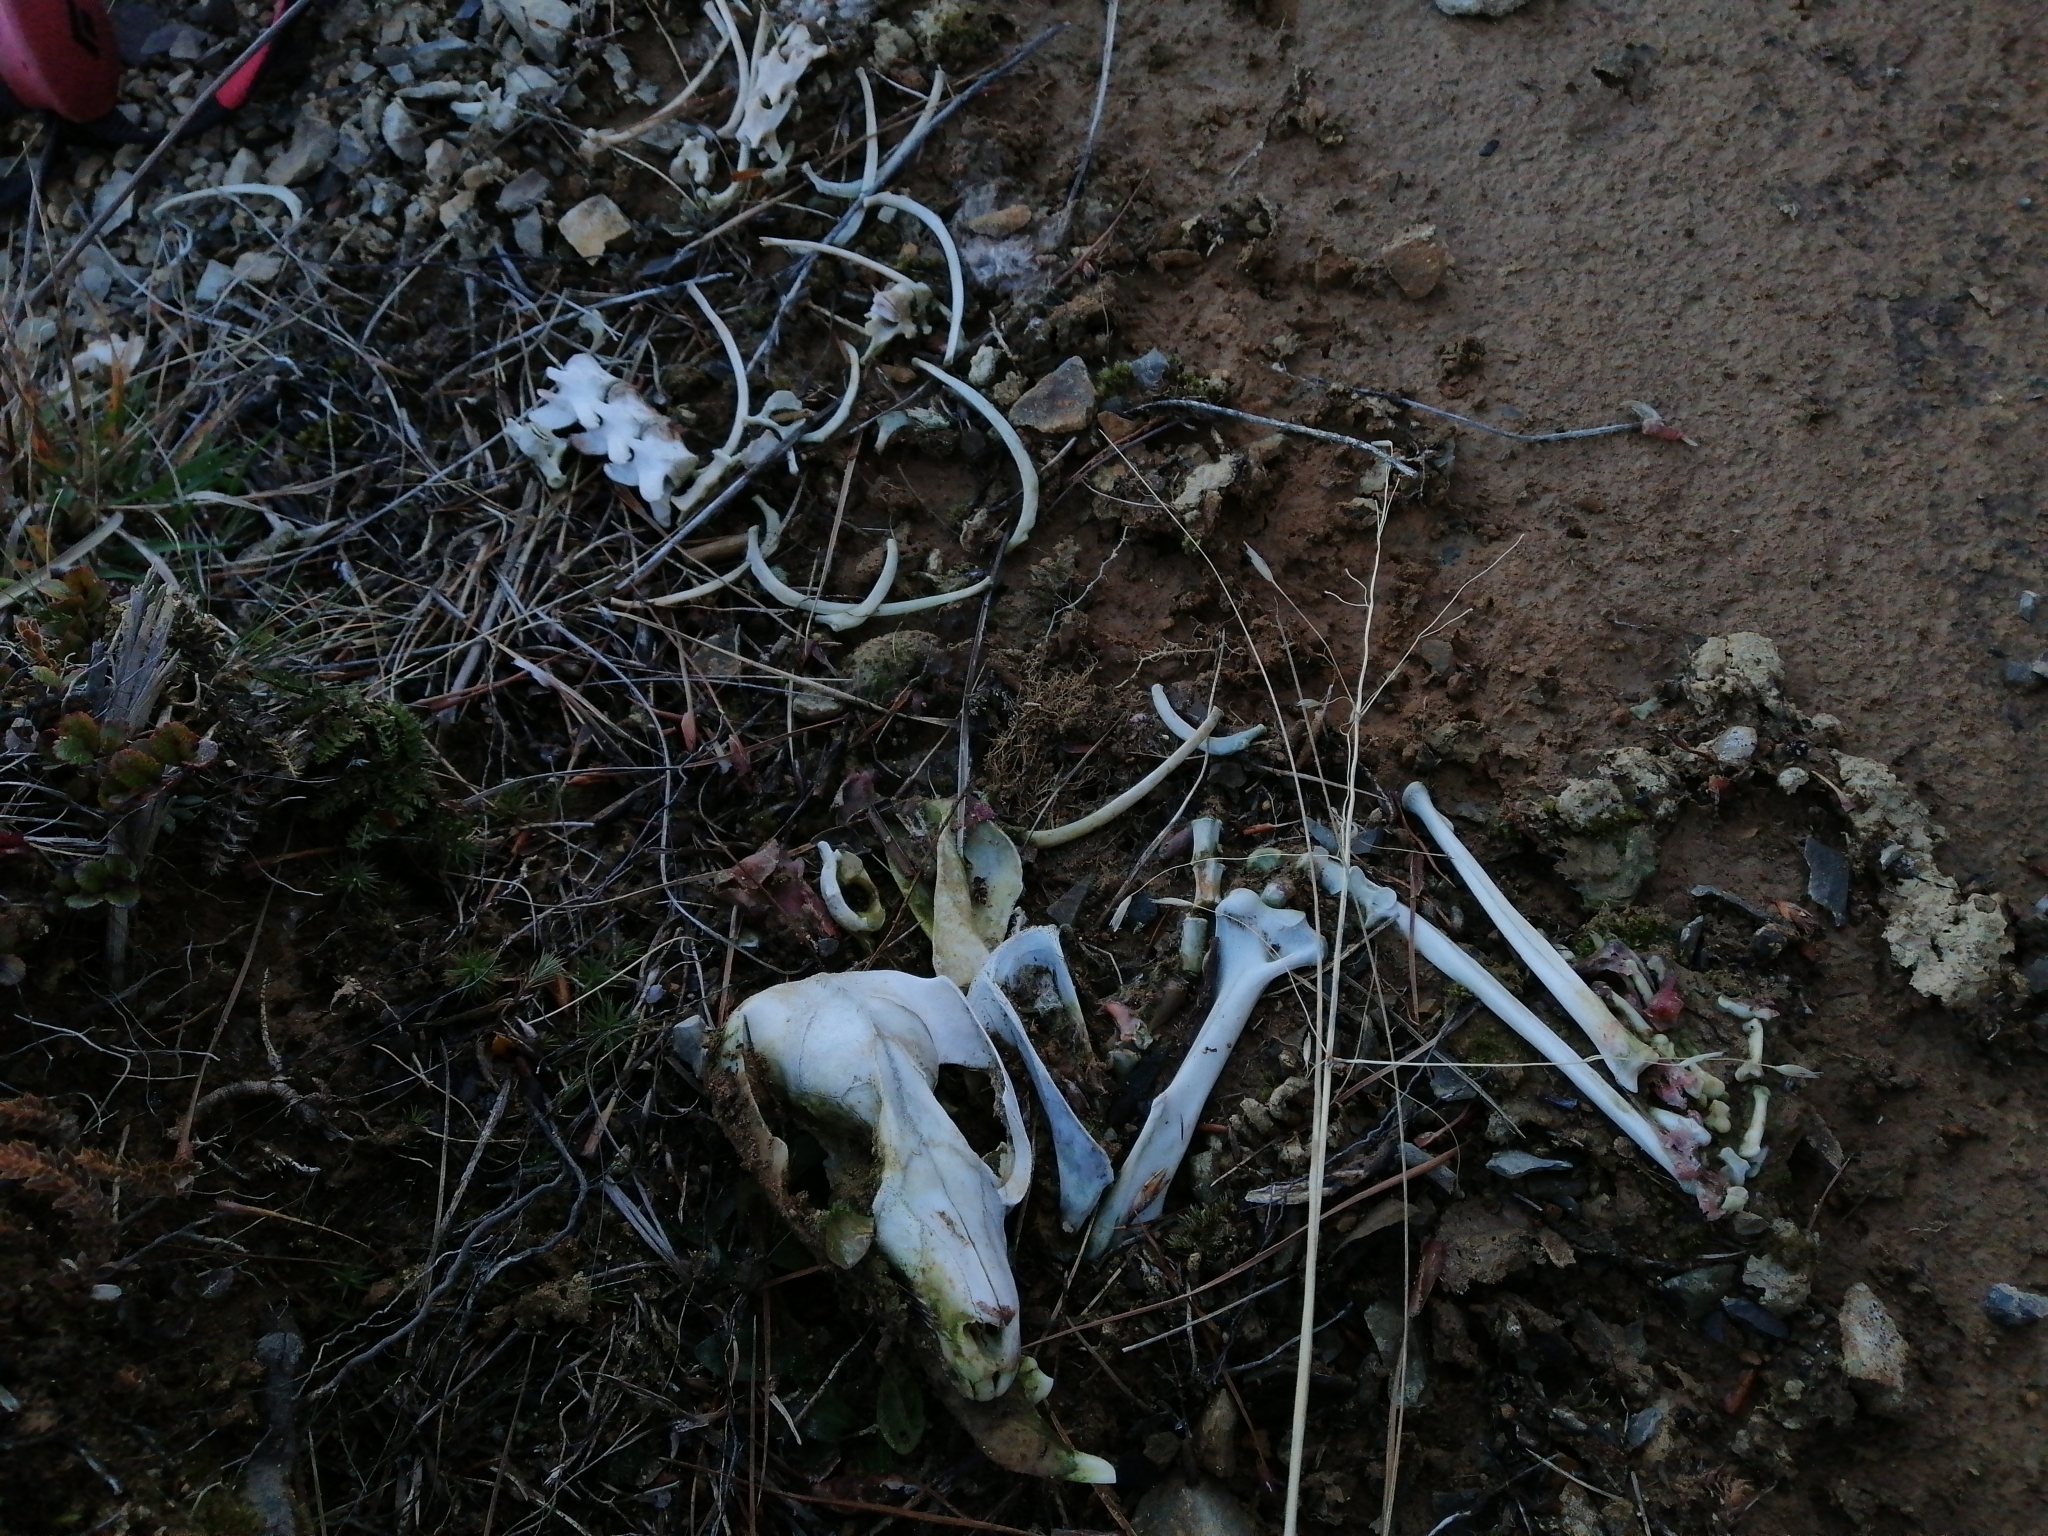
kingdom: Animalia
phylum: Chordata
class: Mammalia
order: Diprotodontia
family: Phalangeridae
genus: Trichosurus
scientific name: Trichosurus vulpecula
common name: Common brushtail
